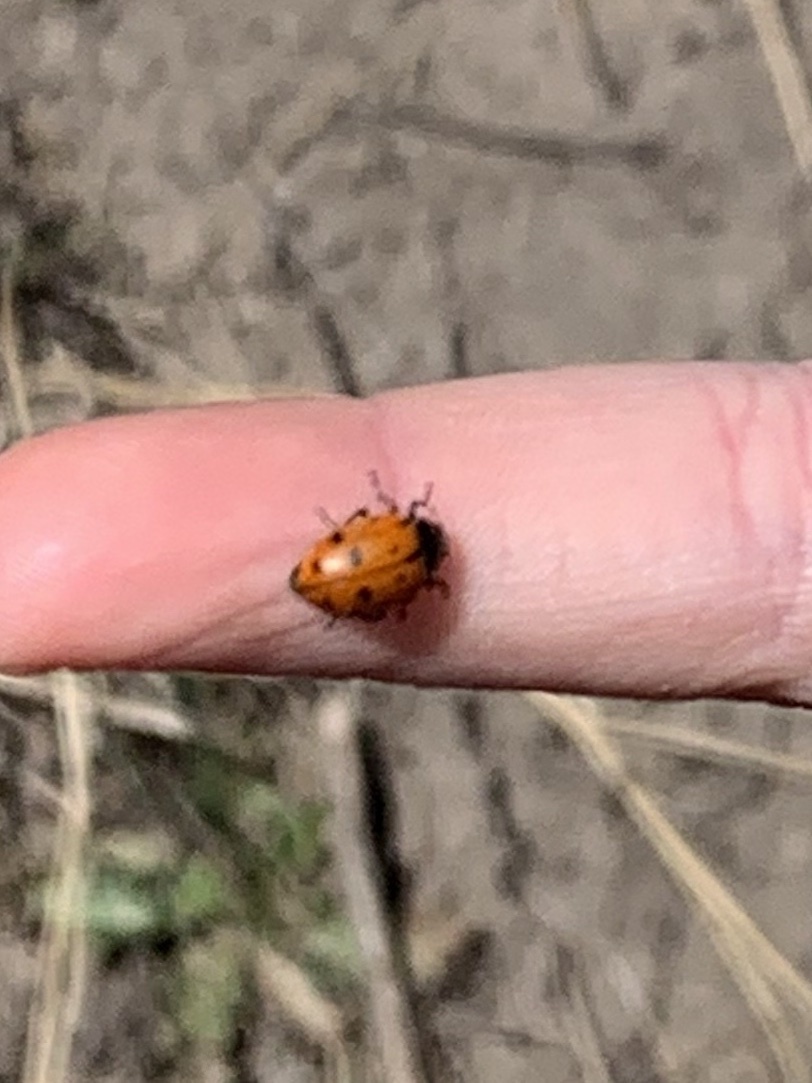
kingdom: Animalia
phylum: Arthropoda
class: Insecta
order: Coleoptera
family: Coccinellidae
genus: Hippodamia
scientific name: Hippodamia convergens
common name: Convergent lady beetle
